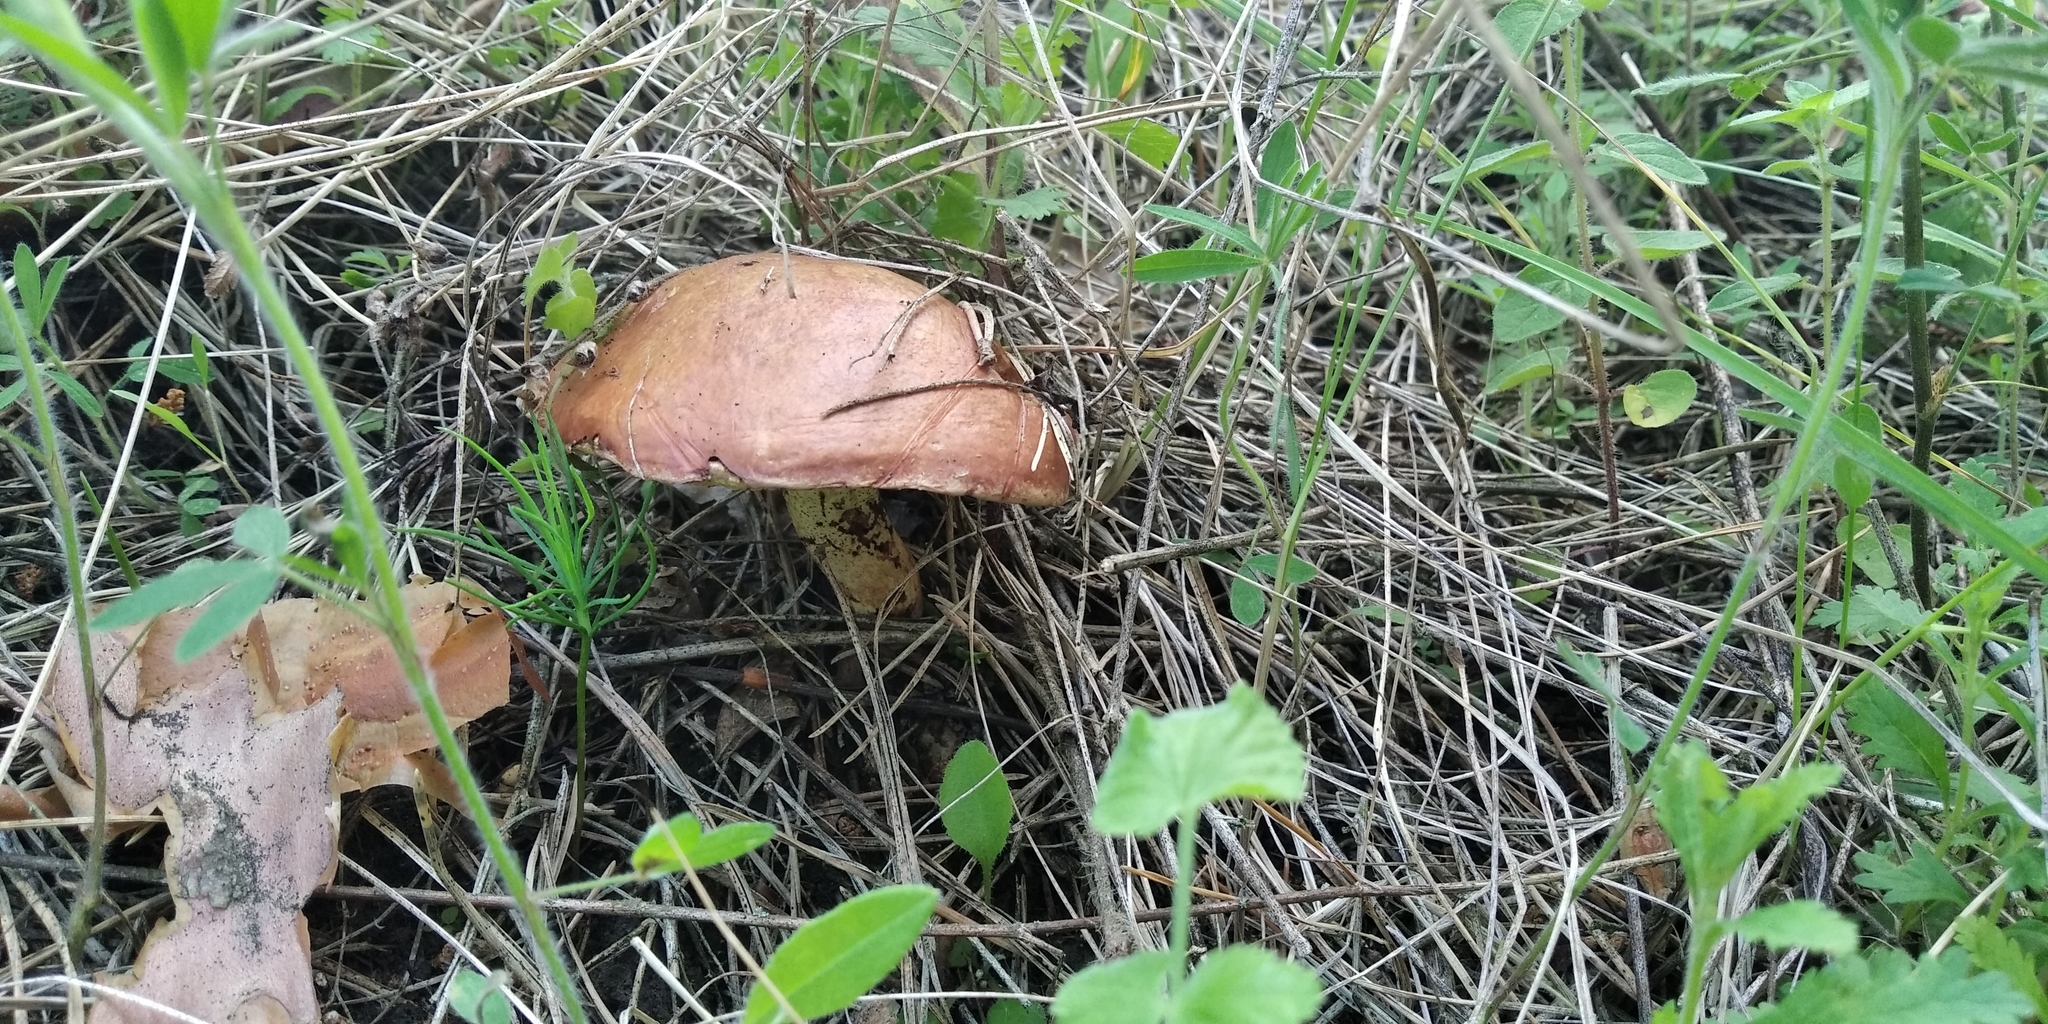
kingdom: Fungi
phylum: Basidiomycota
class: Agaricomycetes
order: Boletales
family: Suillaceae
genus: Suillus
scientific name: Suillus granulatus
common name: Weeping bolete
